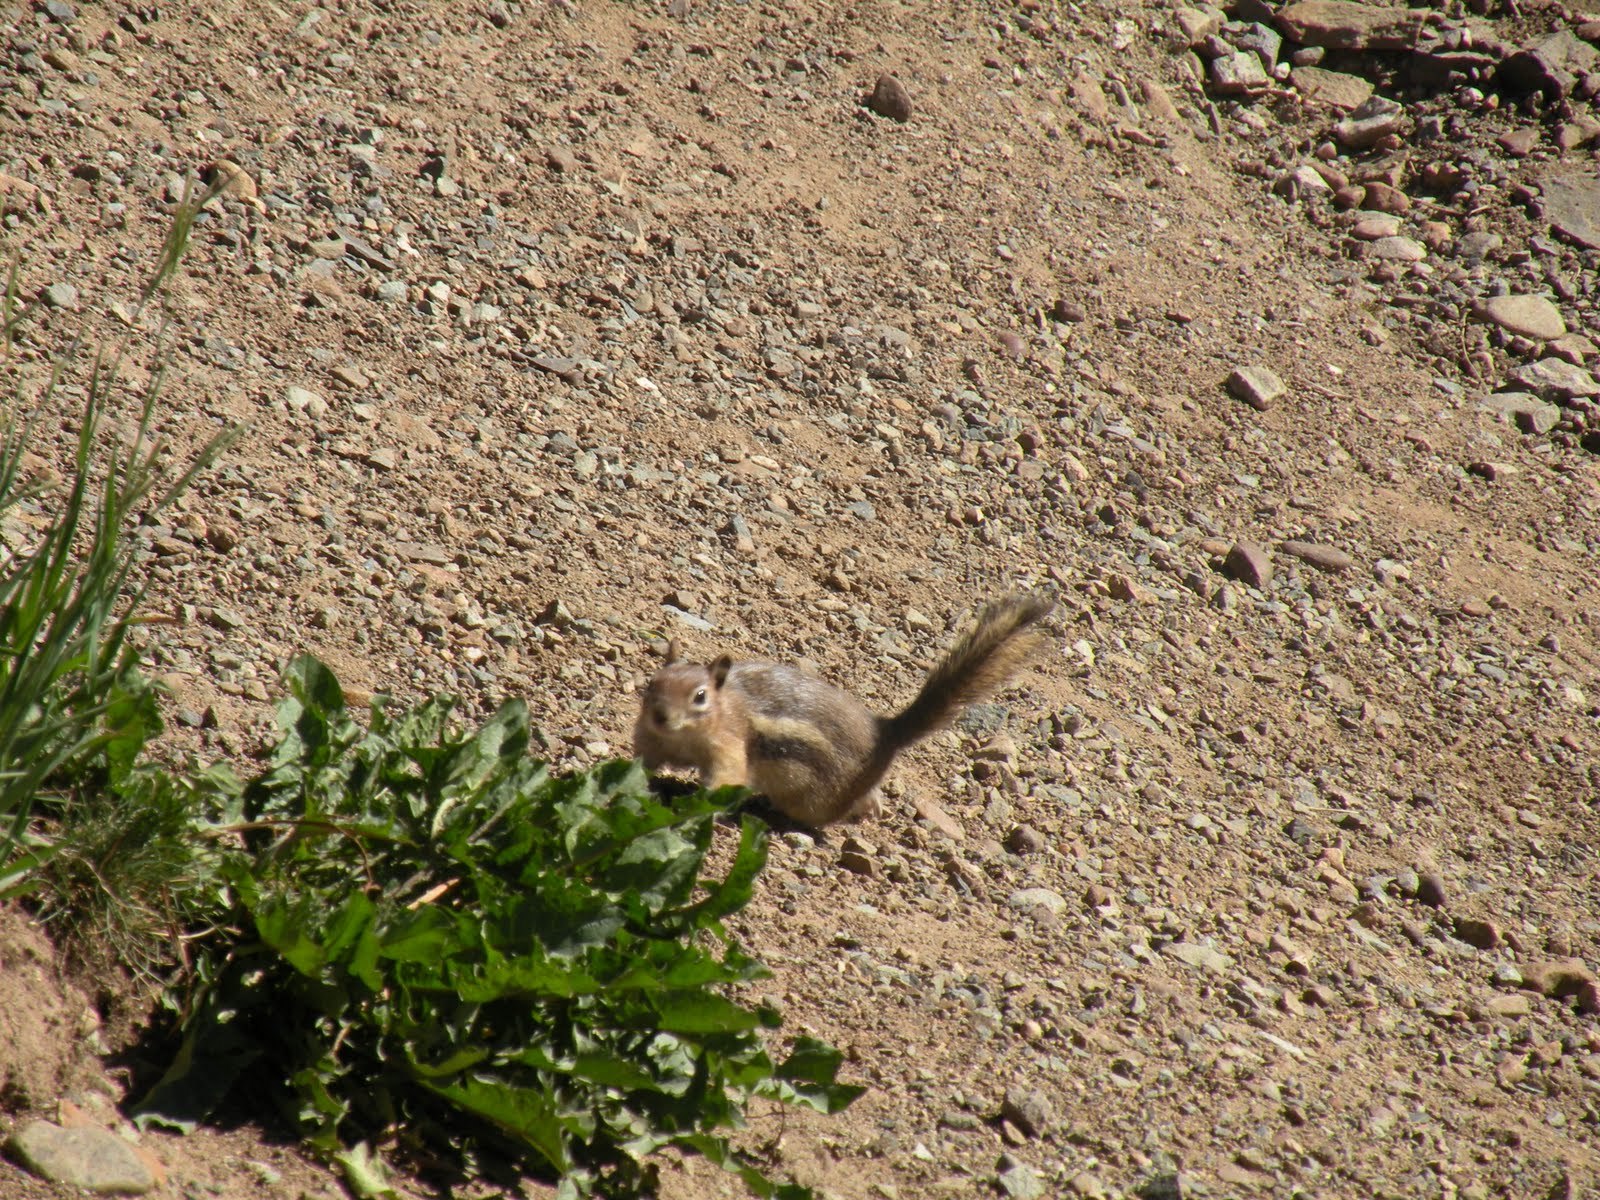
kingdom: Animalia
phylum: Chordata
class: Mammalia
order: Rodentia
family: Sciuridae
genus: Callospermophilus
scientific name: Callospermophilus lateralis
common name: Golden-mantled ground squirrel
